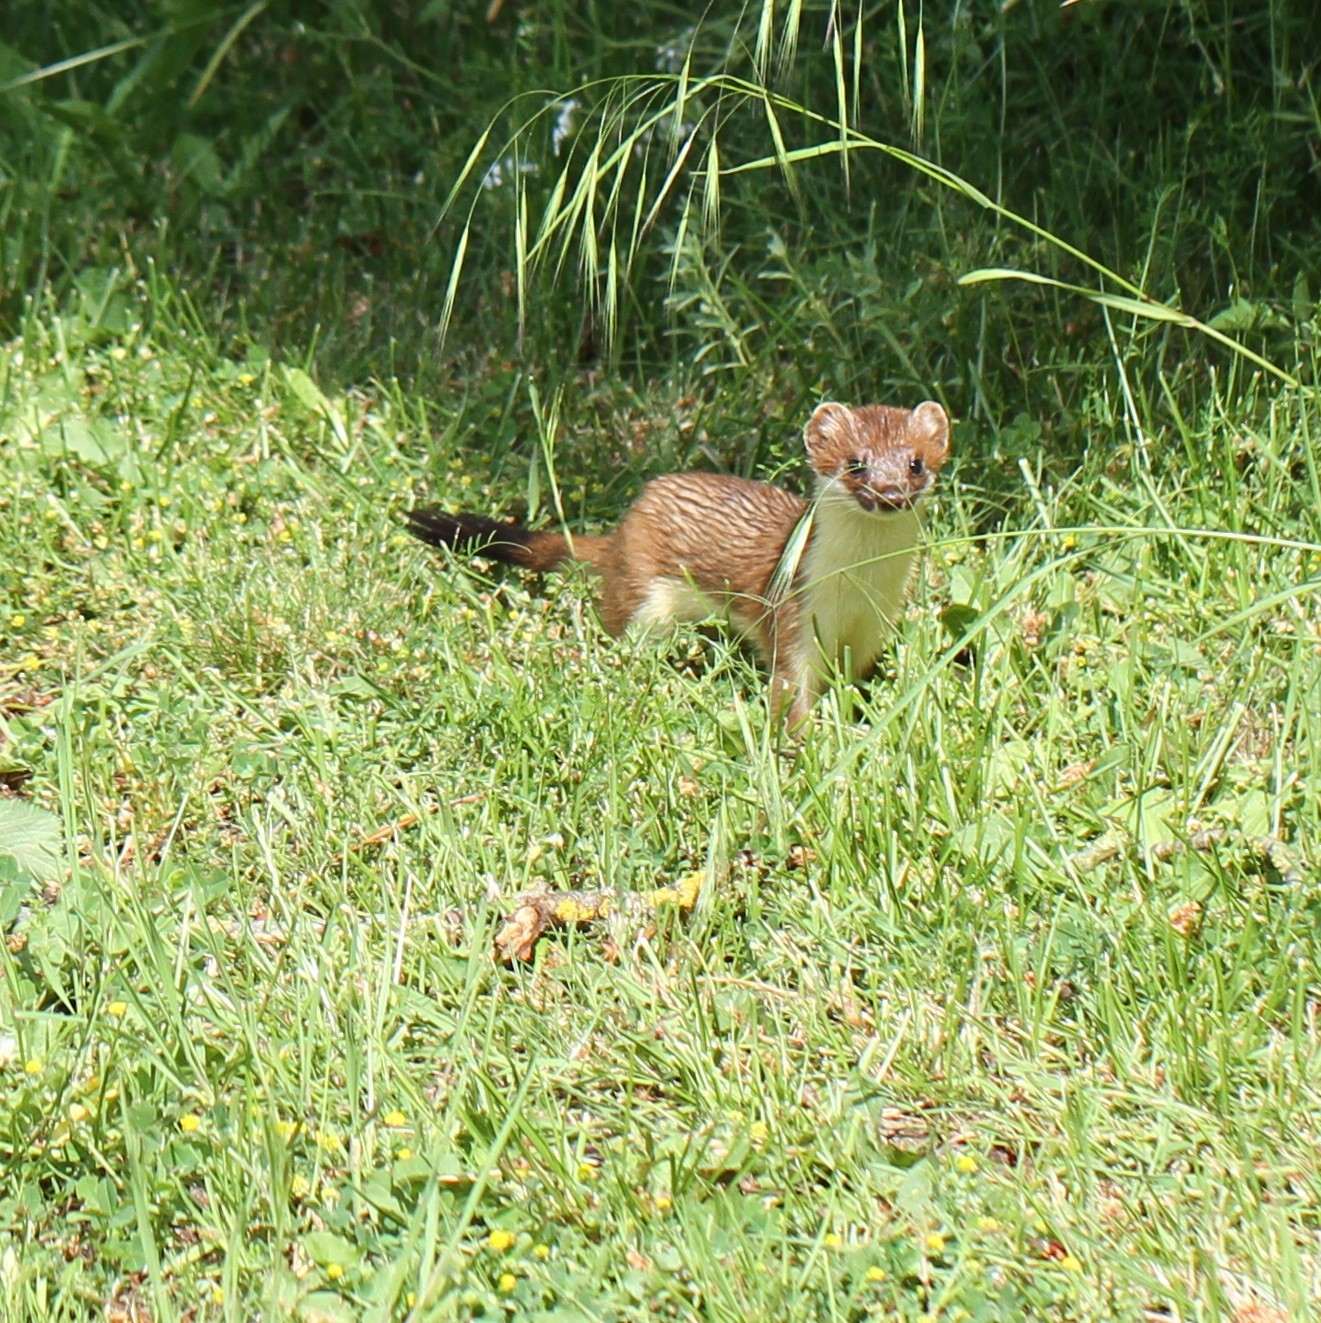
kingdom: Animalia
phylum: Chordata
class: Mammalia
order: Carnivora
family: Mustelidae
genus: Mustela
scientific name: Mustela erminea
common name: Stoat
